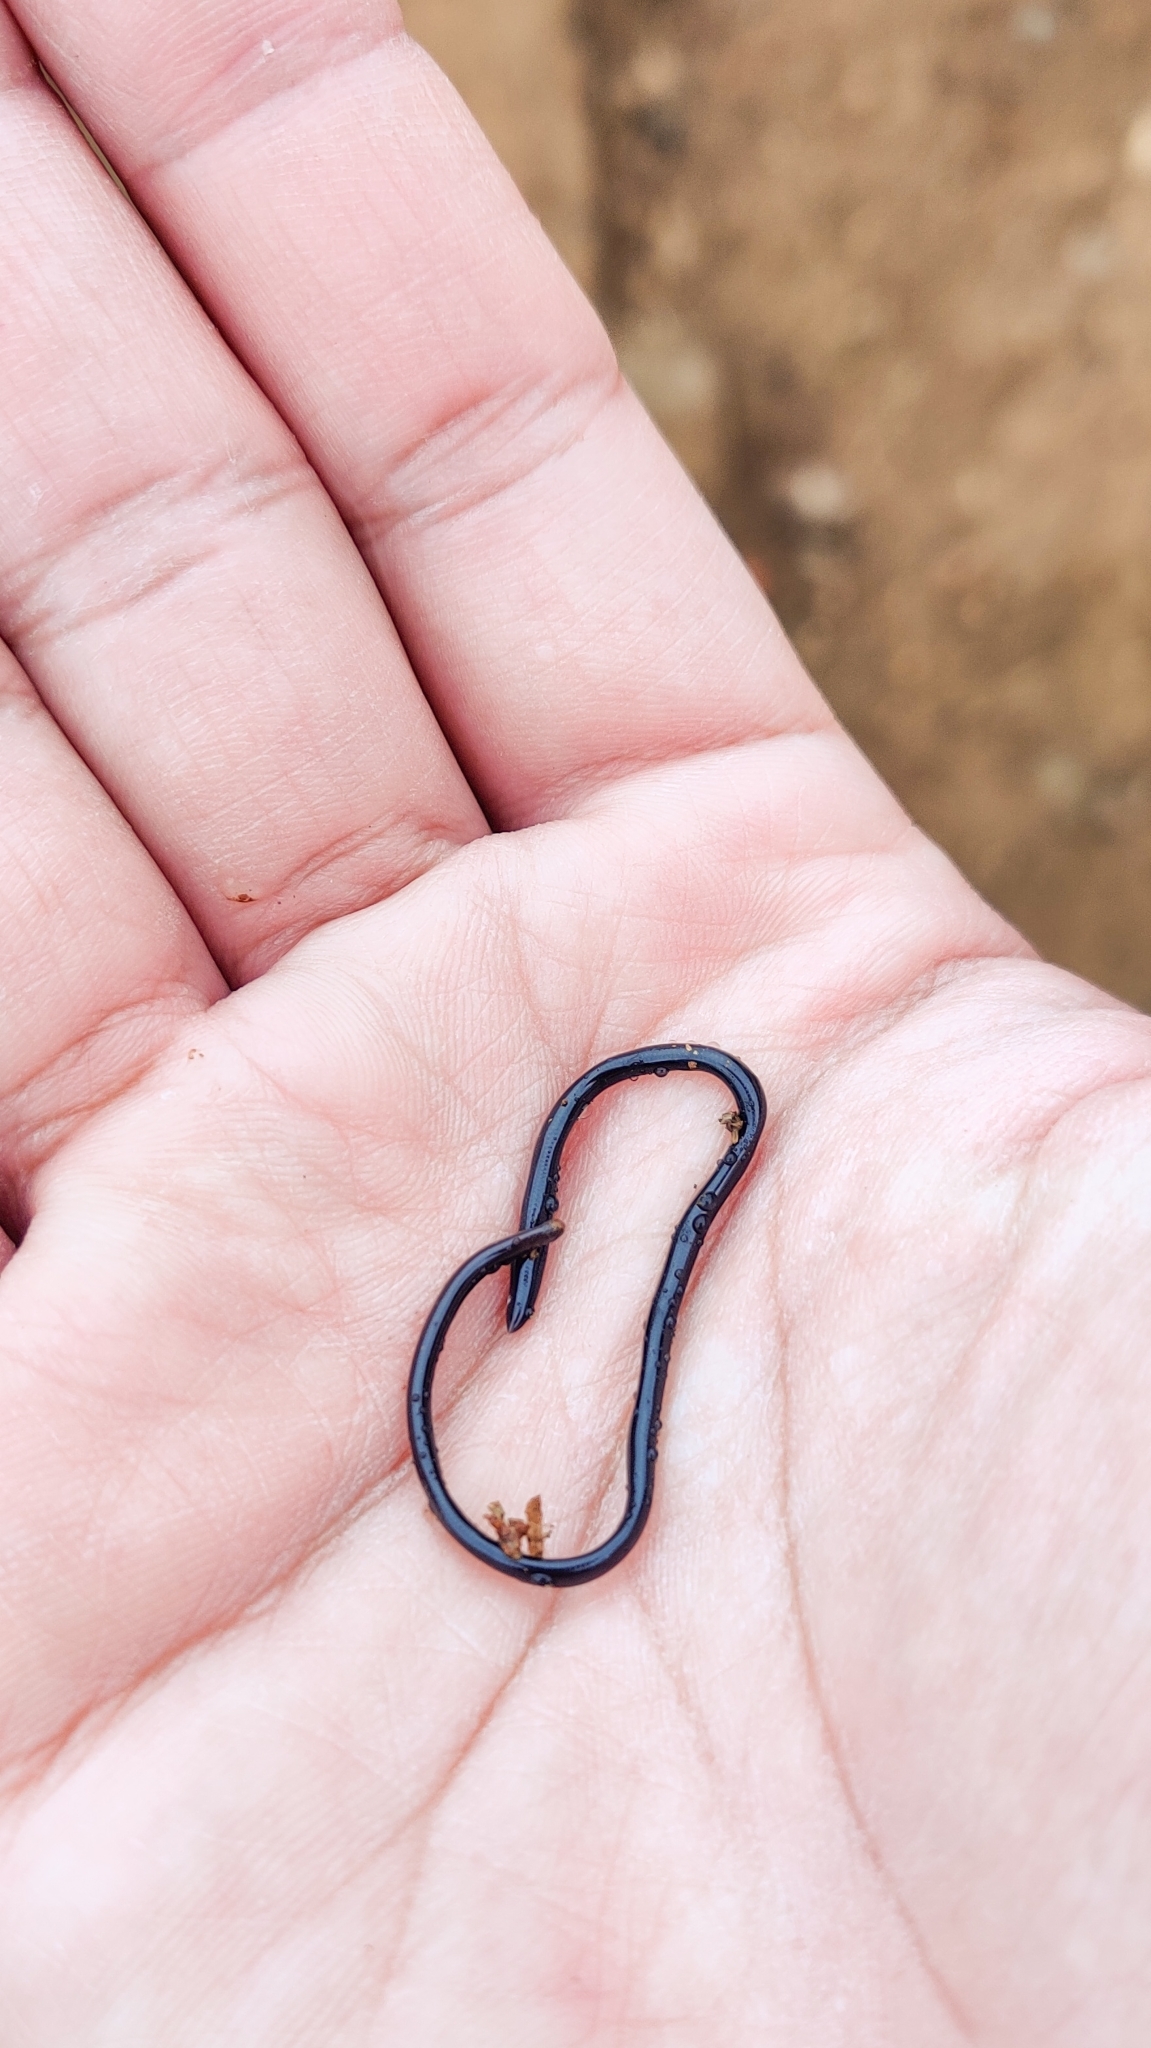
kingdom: Animalia
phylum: Chordata
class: Squamata
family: Typhlopidae
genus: Indotyphlops
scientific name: Indotyphlops braminus
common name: Brahminy blindsnake
